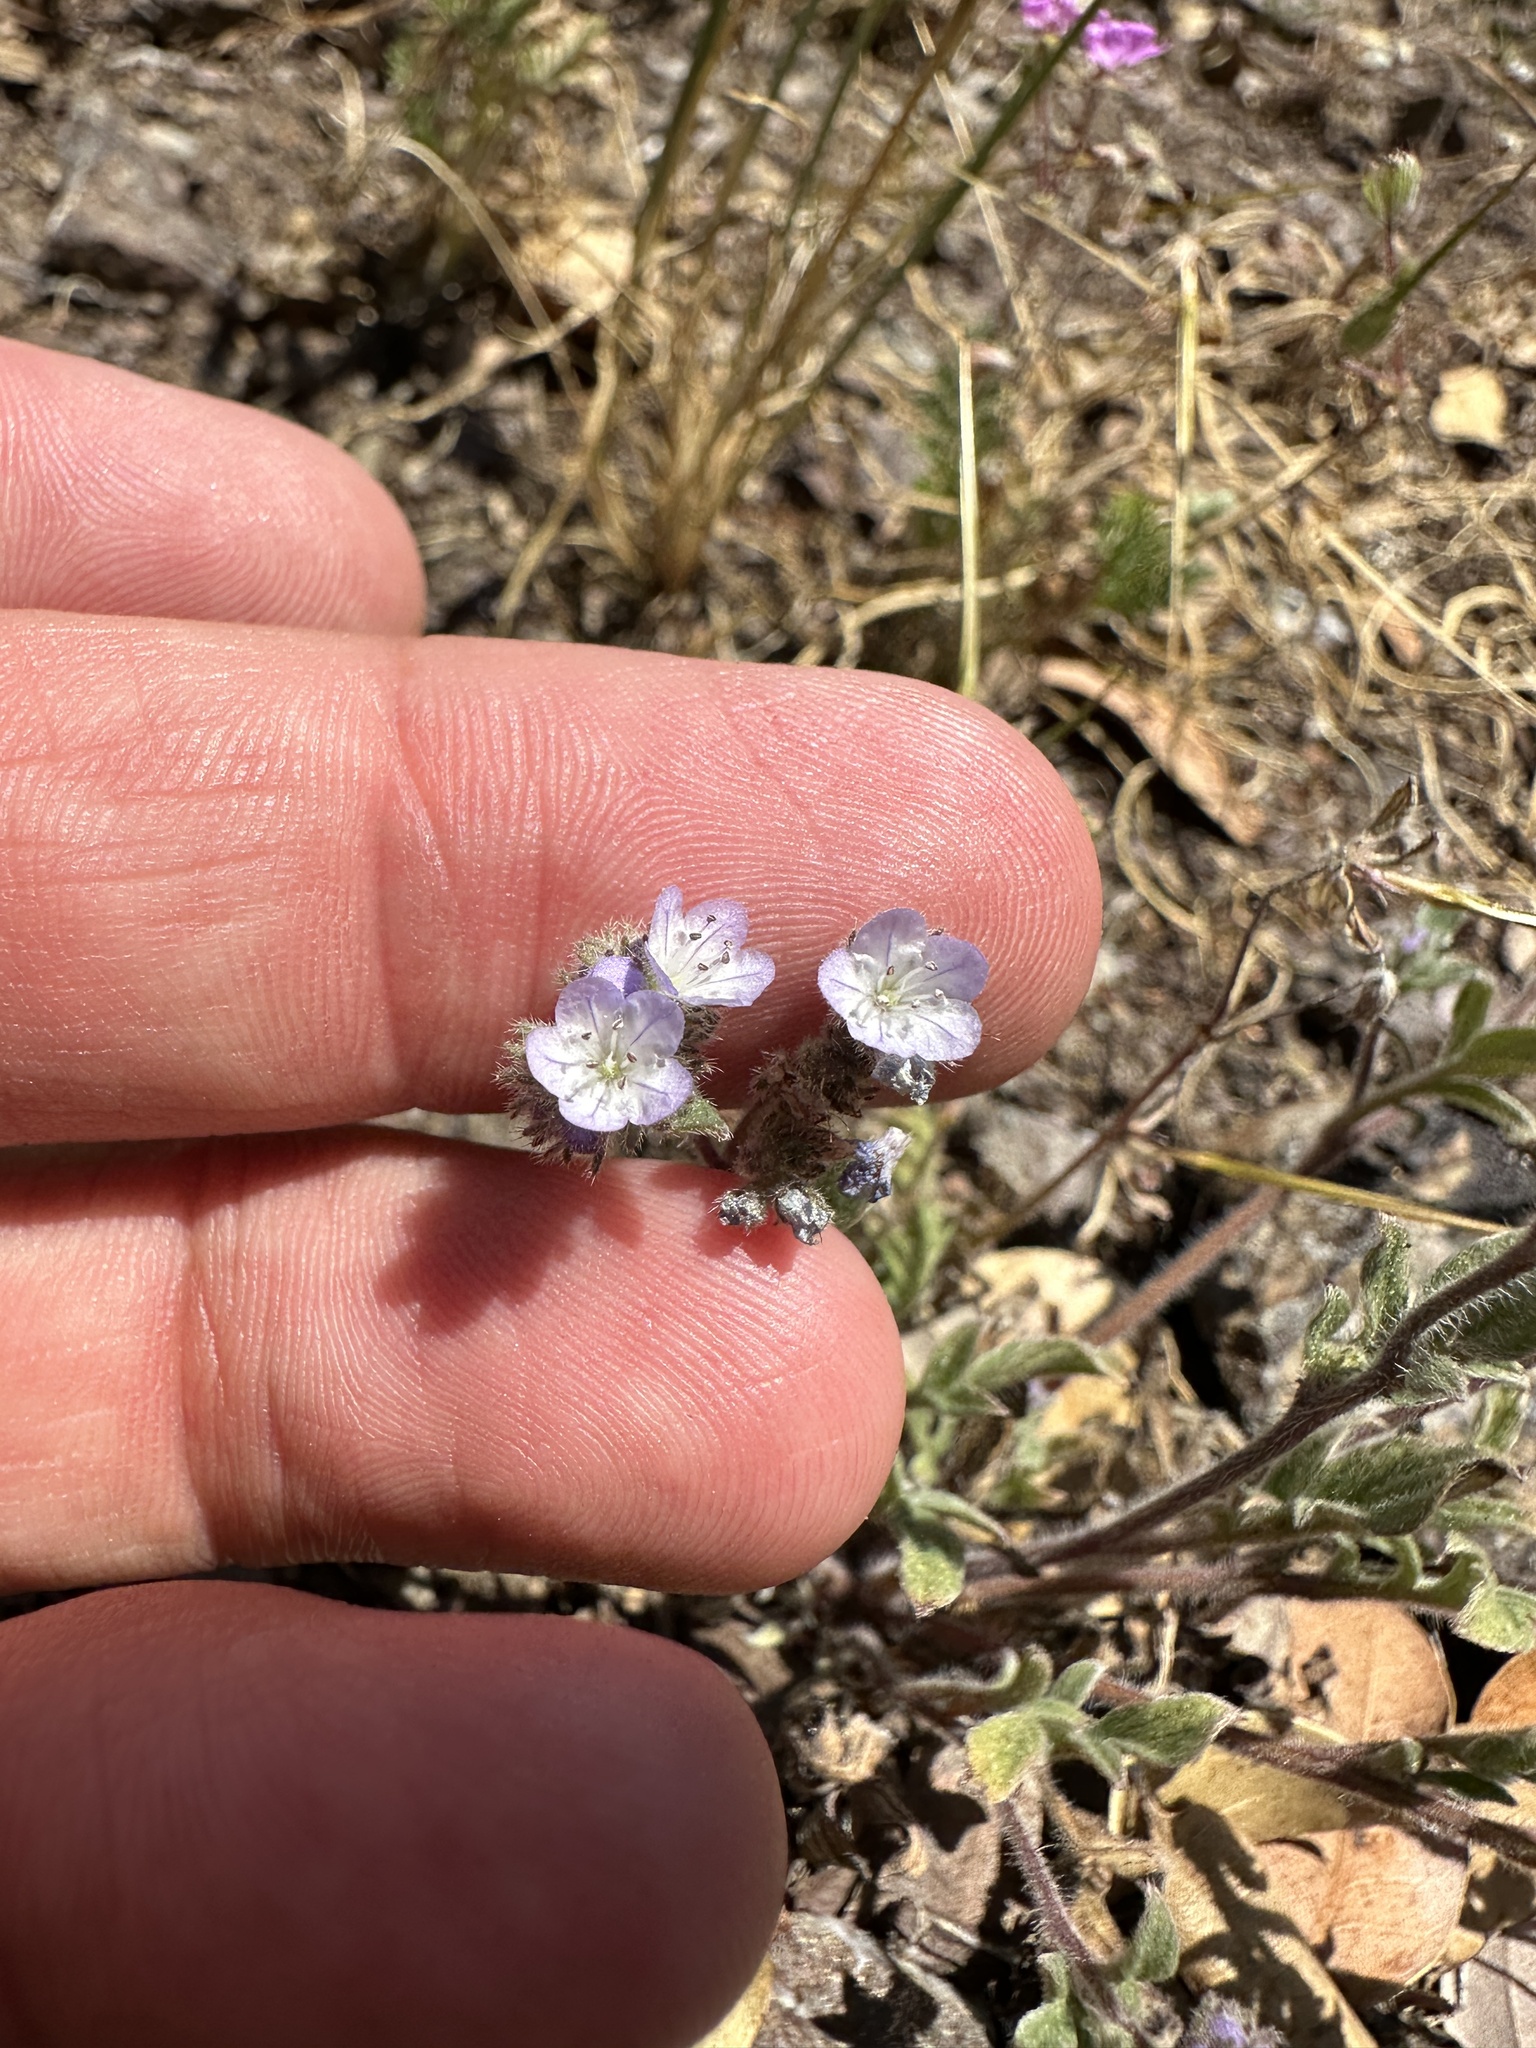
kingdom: Plantae
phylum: Tracheophyta
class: Magnoliopsida
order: Boraginales
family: Hydrophyllaceae
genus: Phacelia
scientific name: Phacelia breweri
